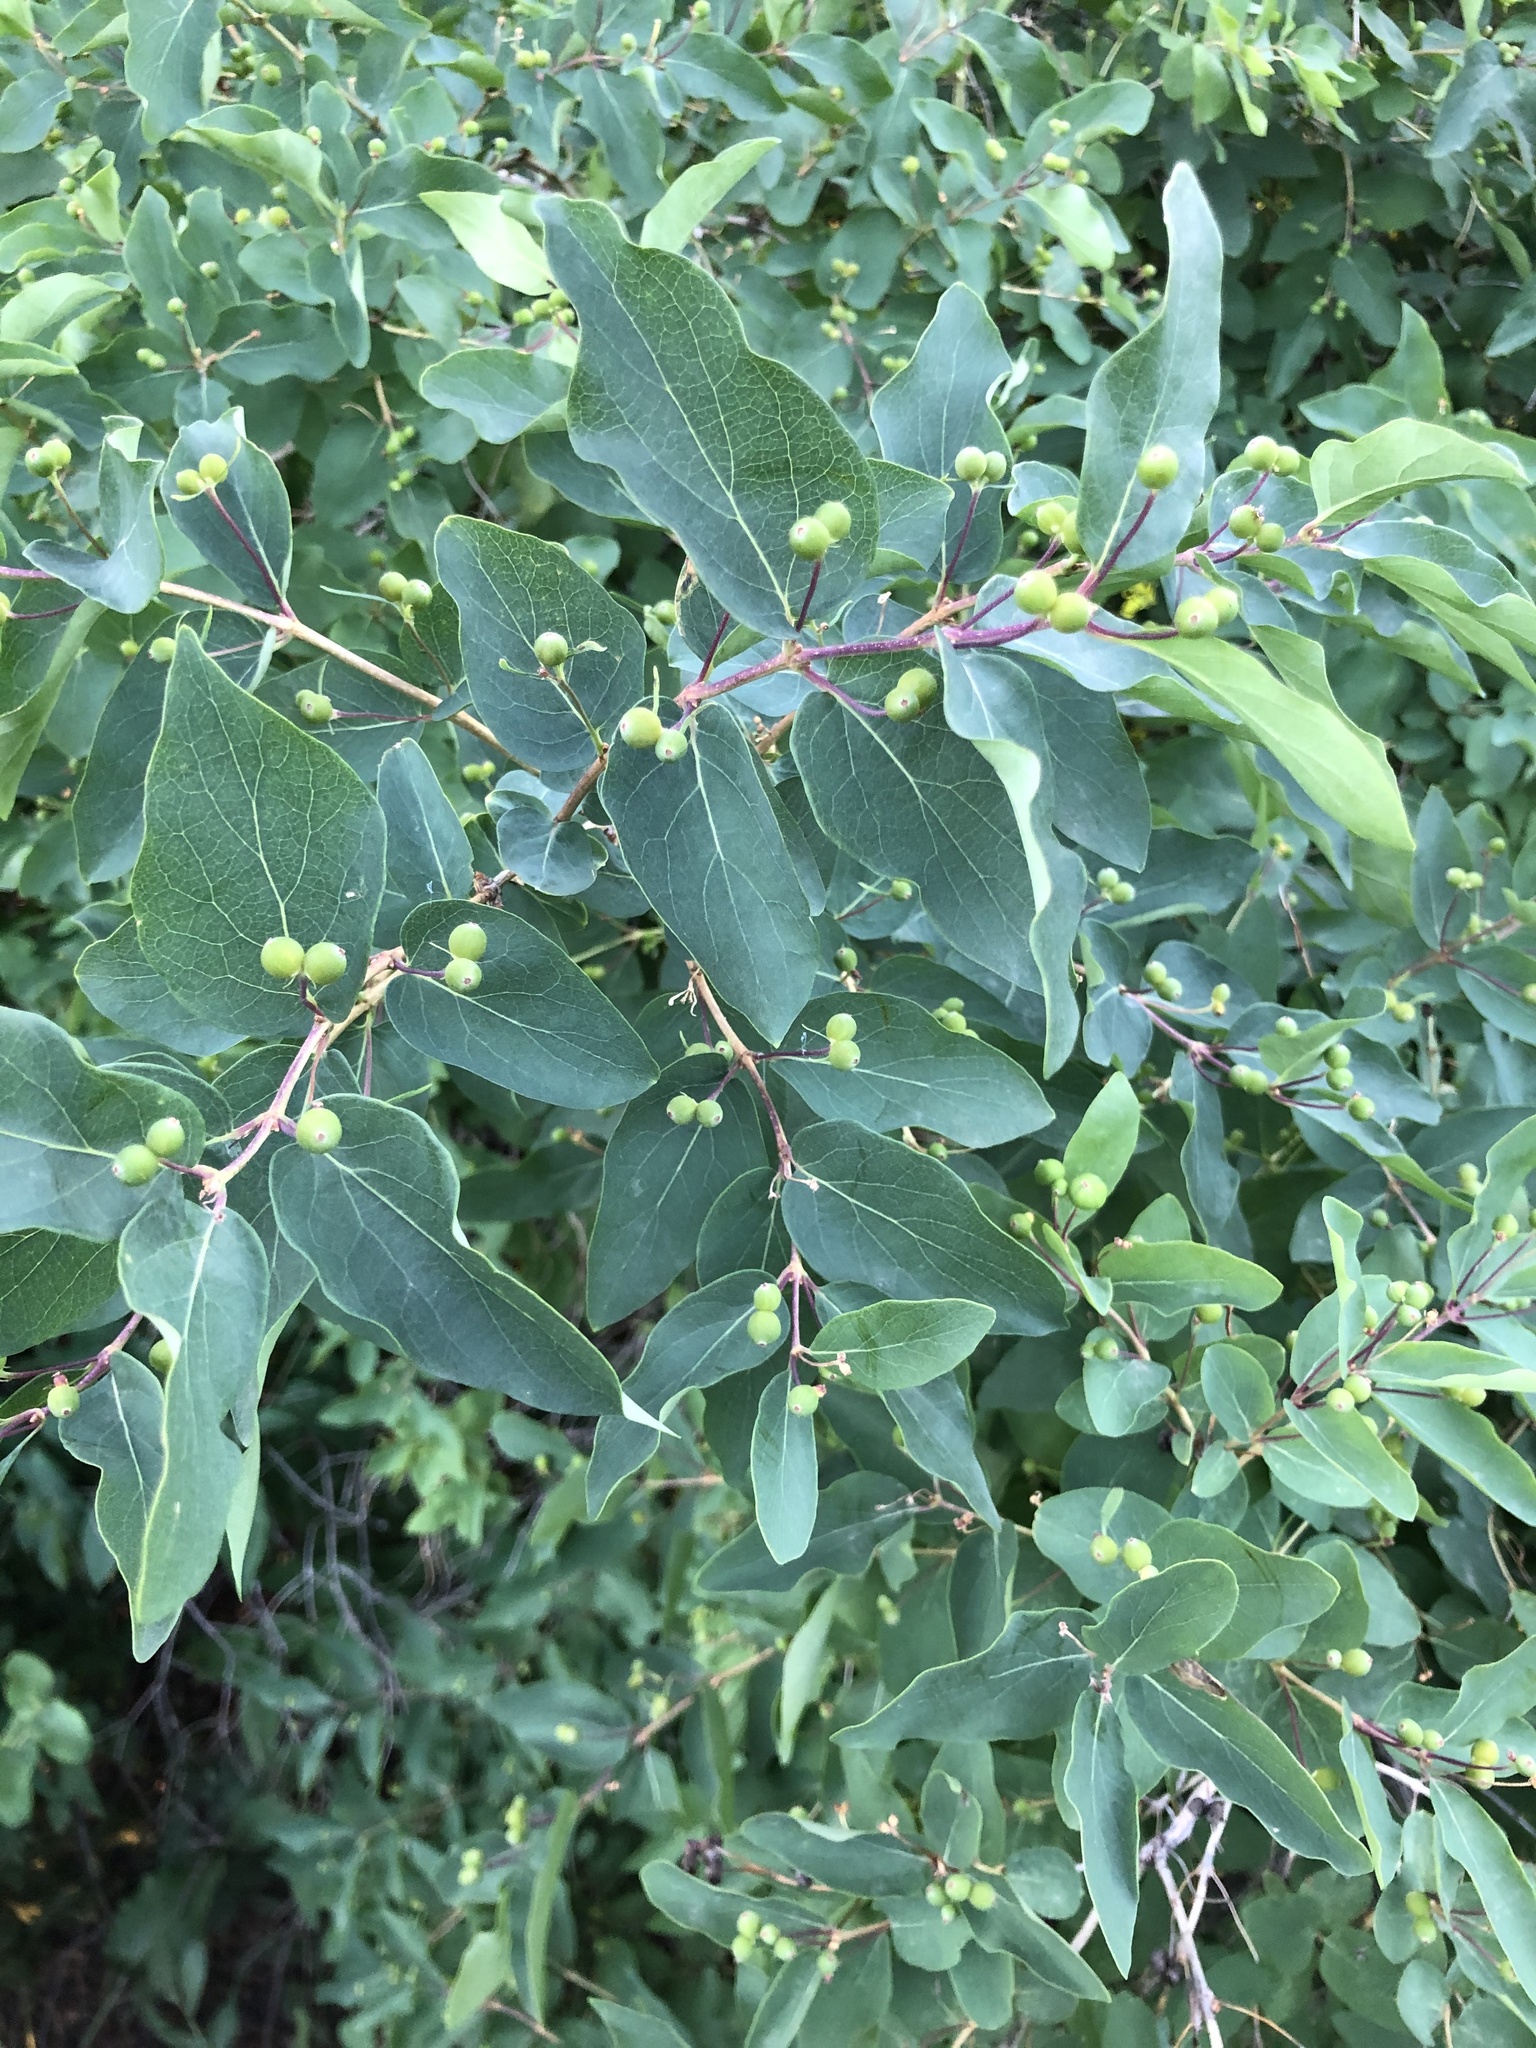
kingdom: Plantae
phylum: Tracheophyta
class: Magnoliopsida
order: Dipsacales
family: Caprifoliaceae
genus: Lonicera
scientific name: Lonicera tatarica
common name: Tatarian honeysuckle
